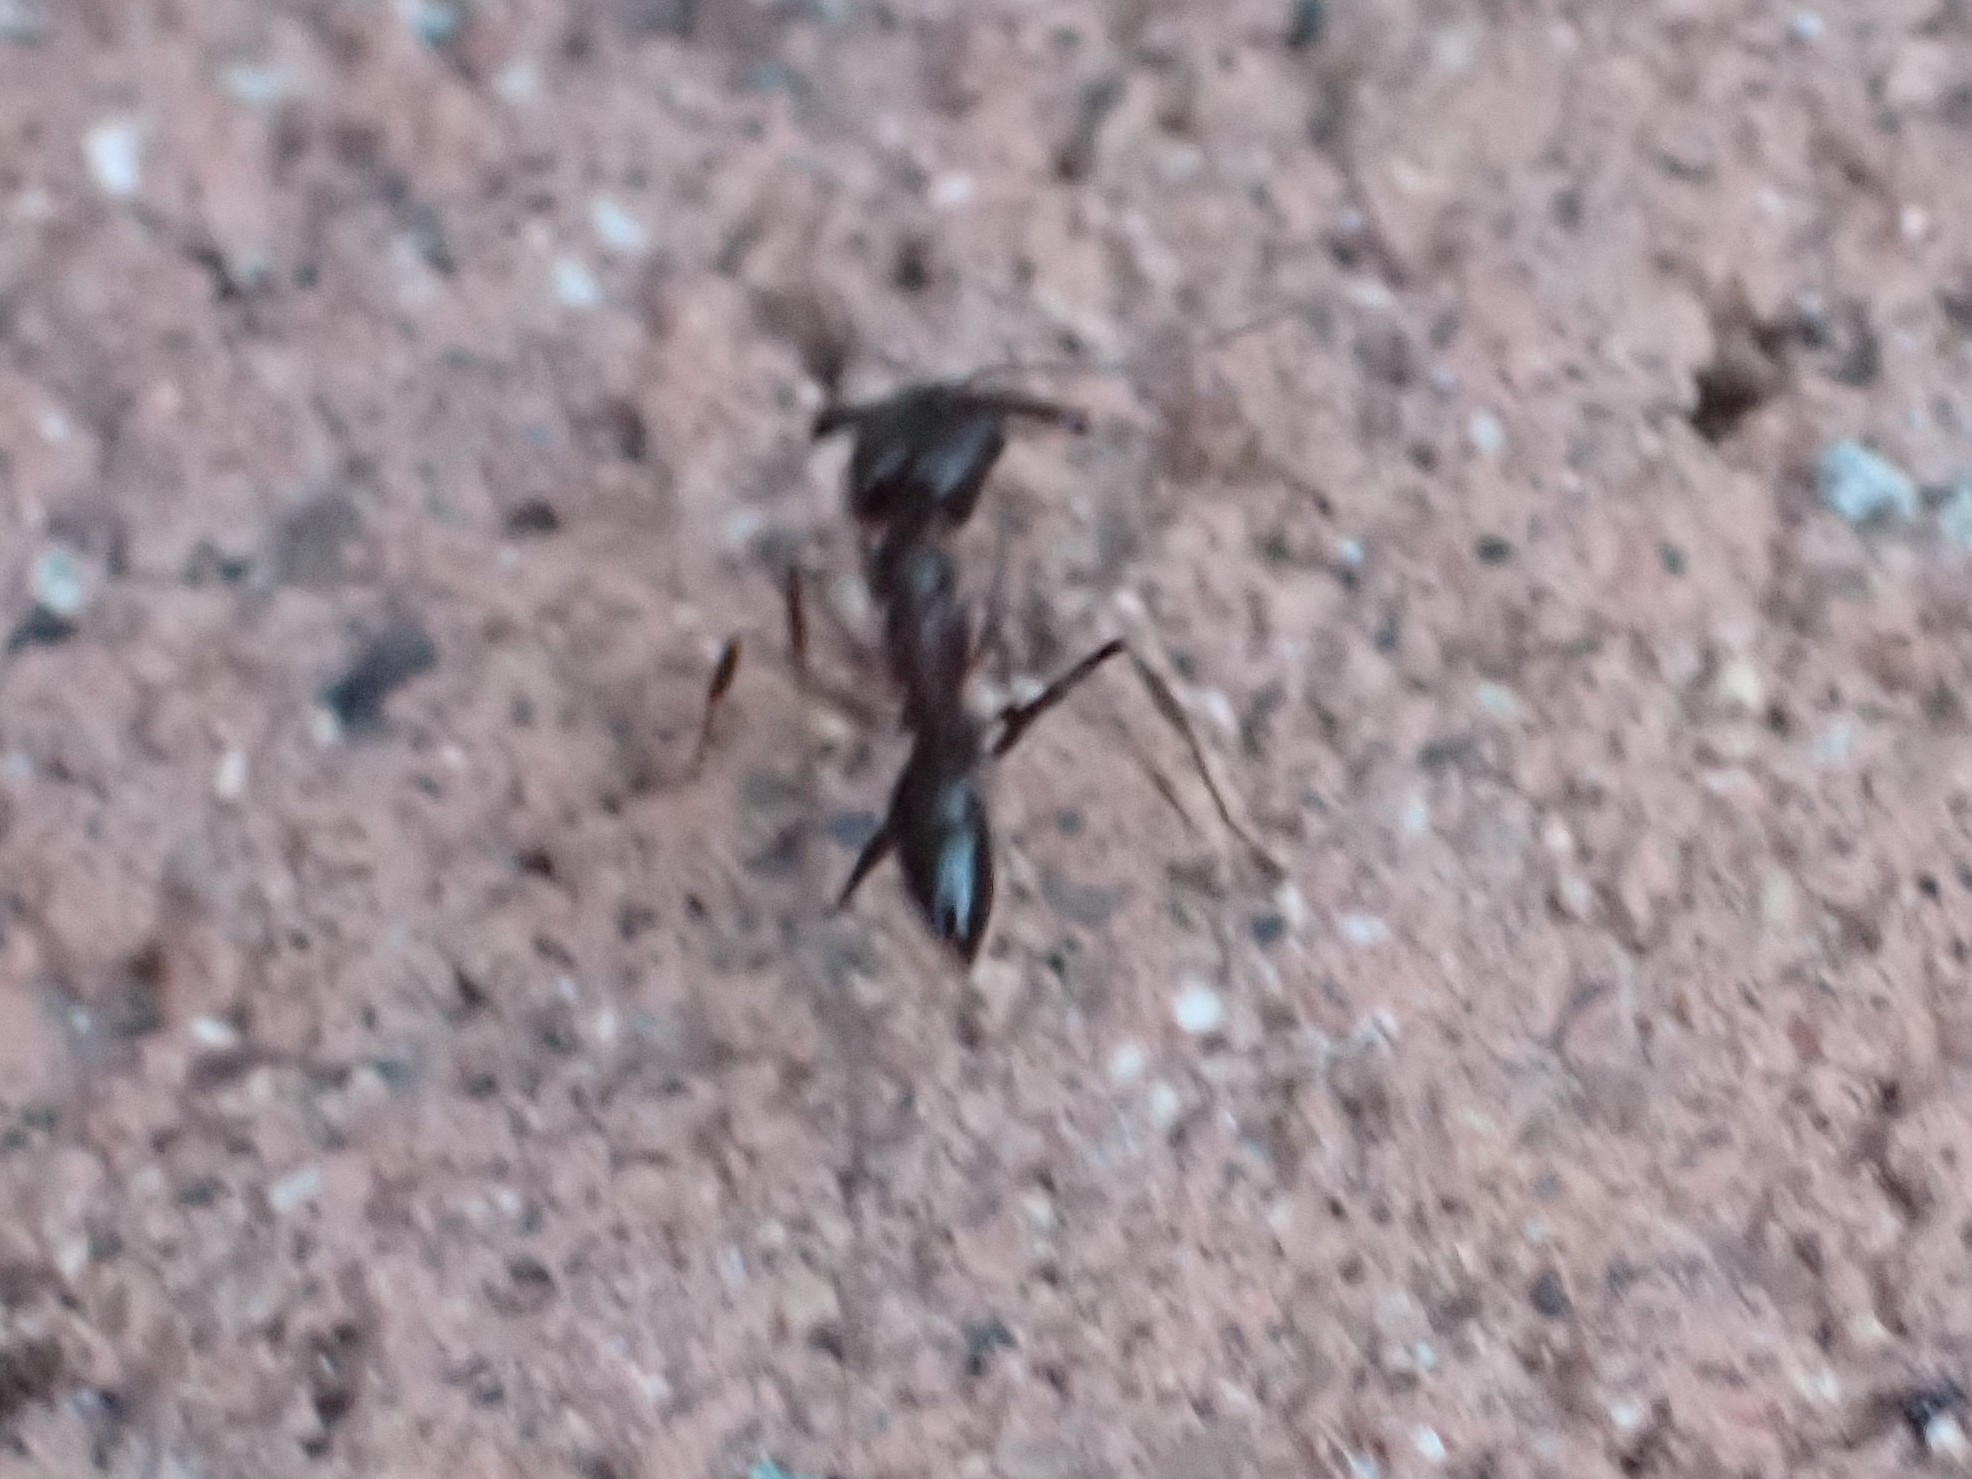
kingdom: Animalia
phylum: Arthropoda
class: Insecta
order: Hymenoptera
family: Formicidae
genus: Odontomachus
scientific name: Odontomachus simillimus
